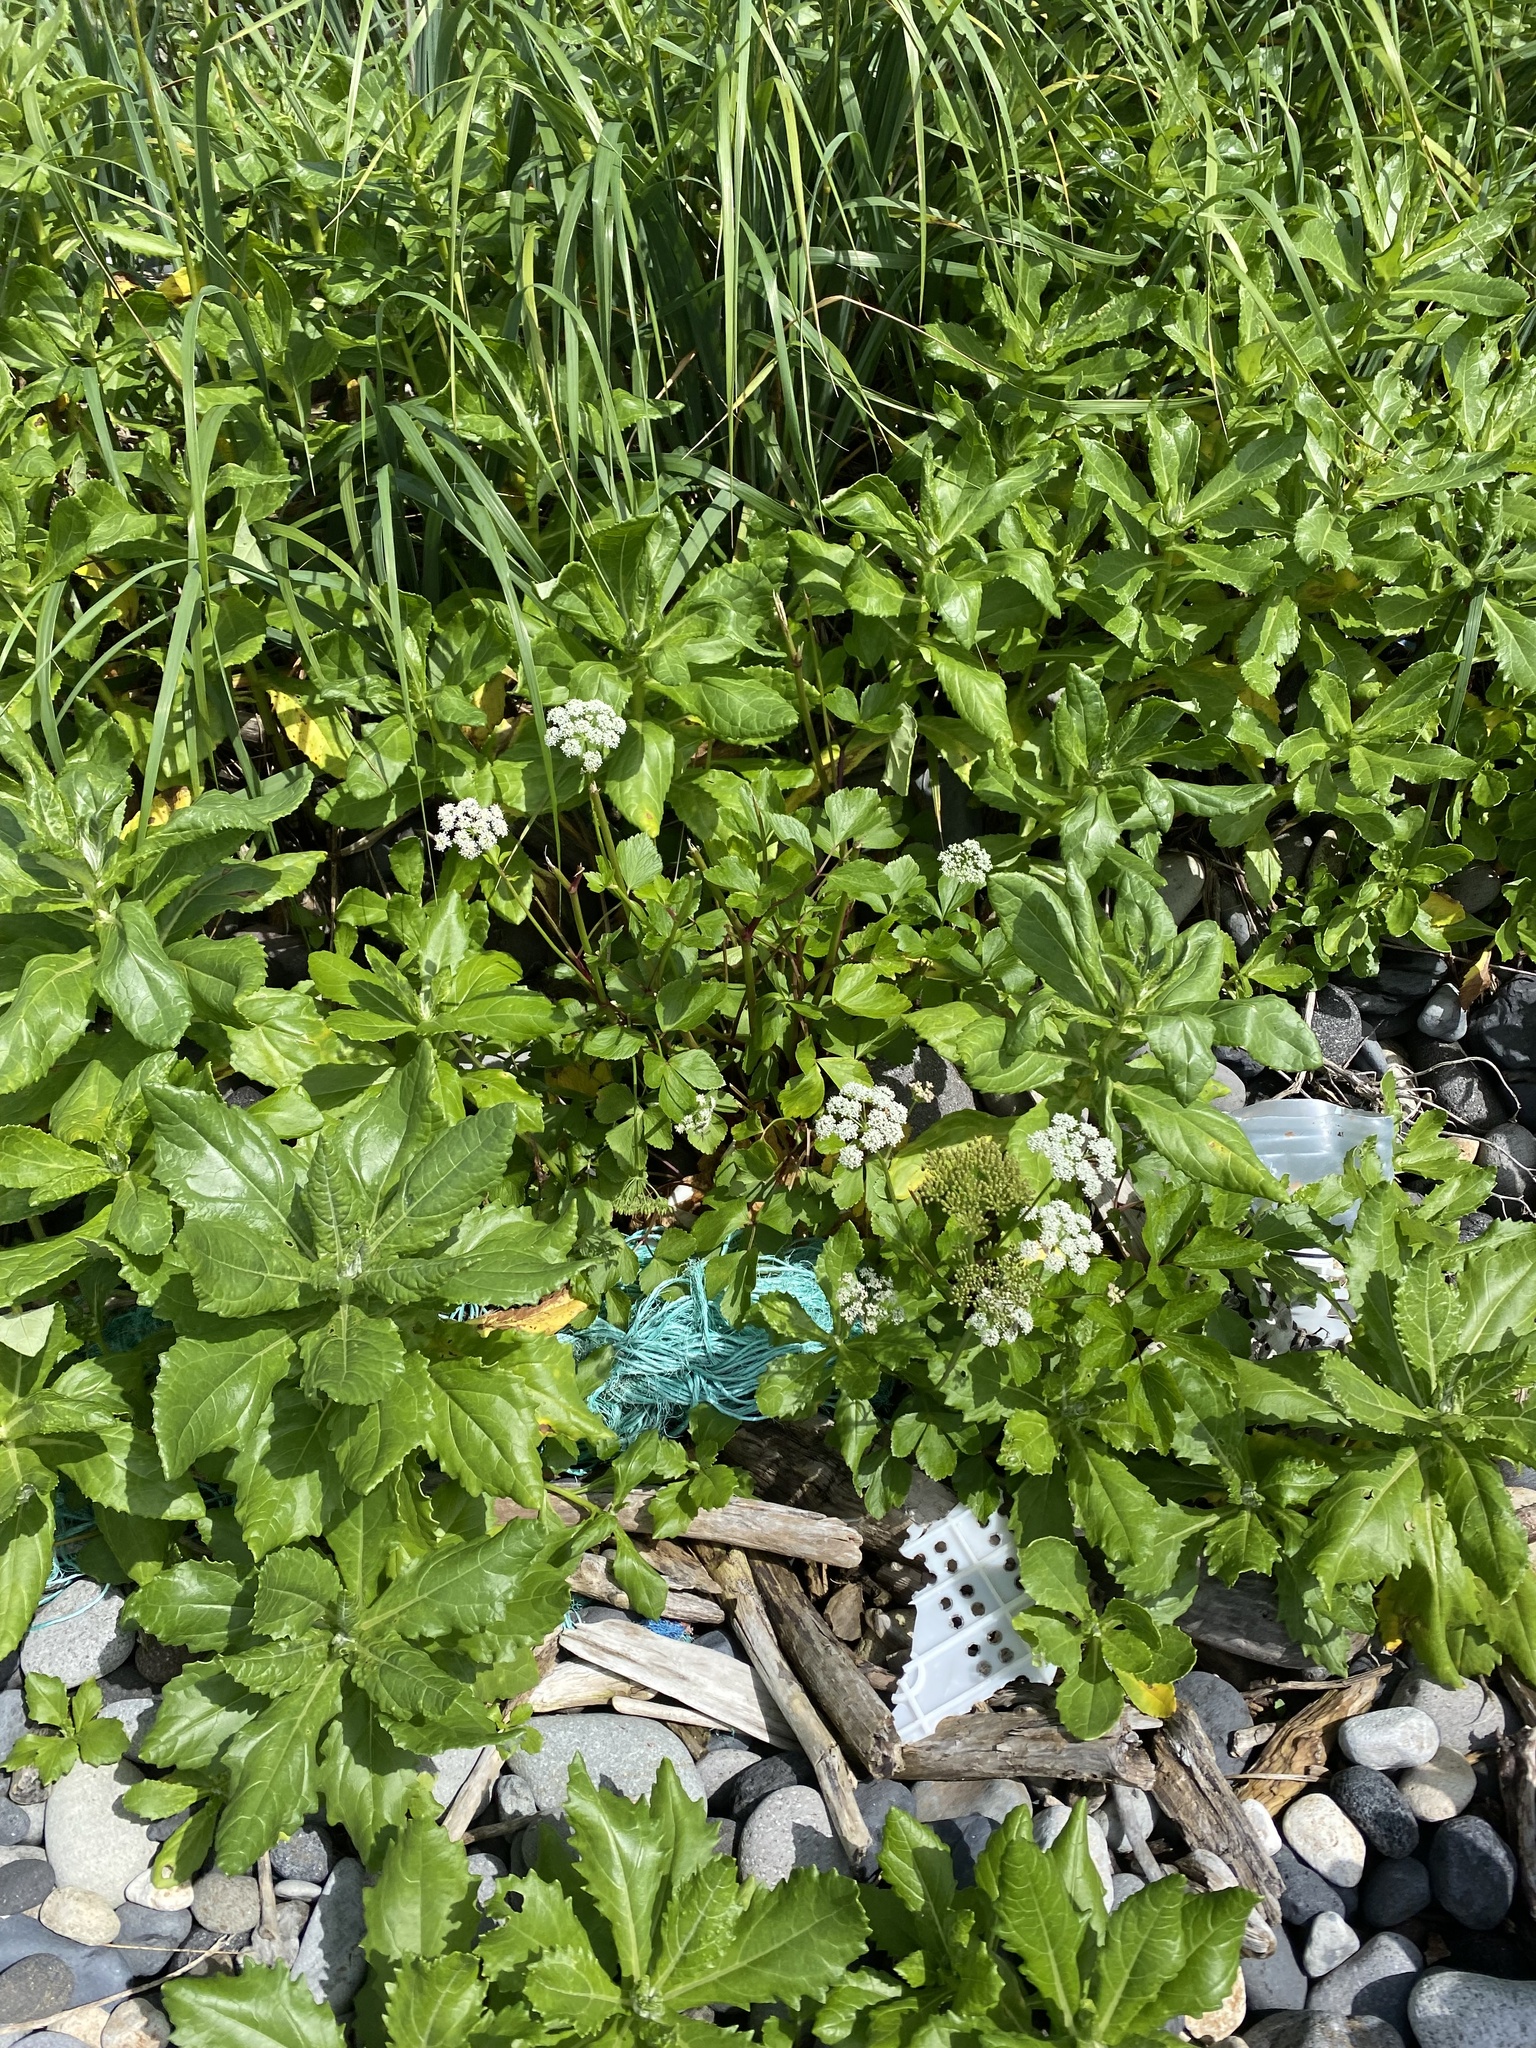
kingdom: Plantae
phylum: Tracheophyta
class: Magnoliopsida
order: Apiales
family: Apiaceae
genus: Ligusticum
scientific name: Ligusticum scothicum
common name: Beach lovage
